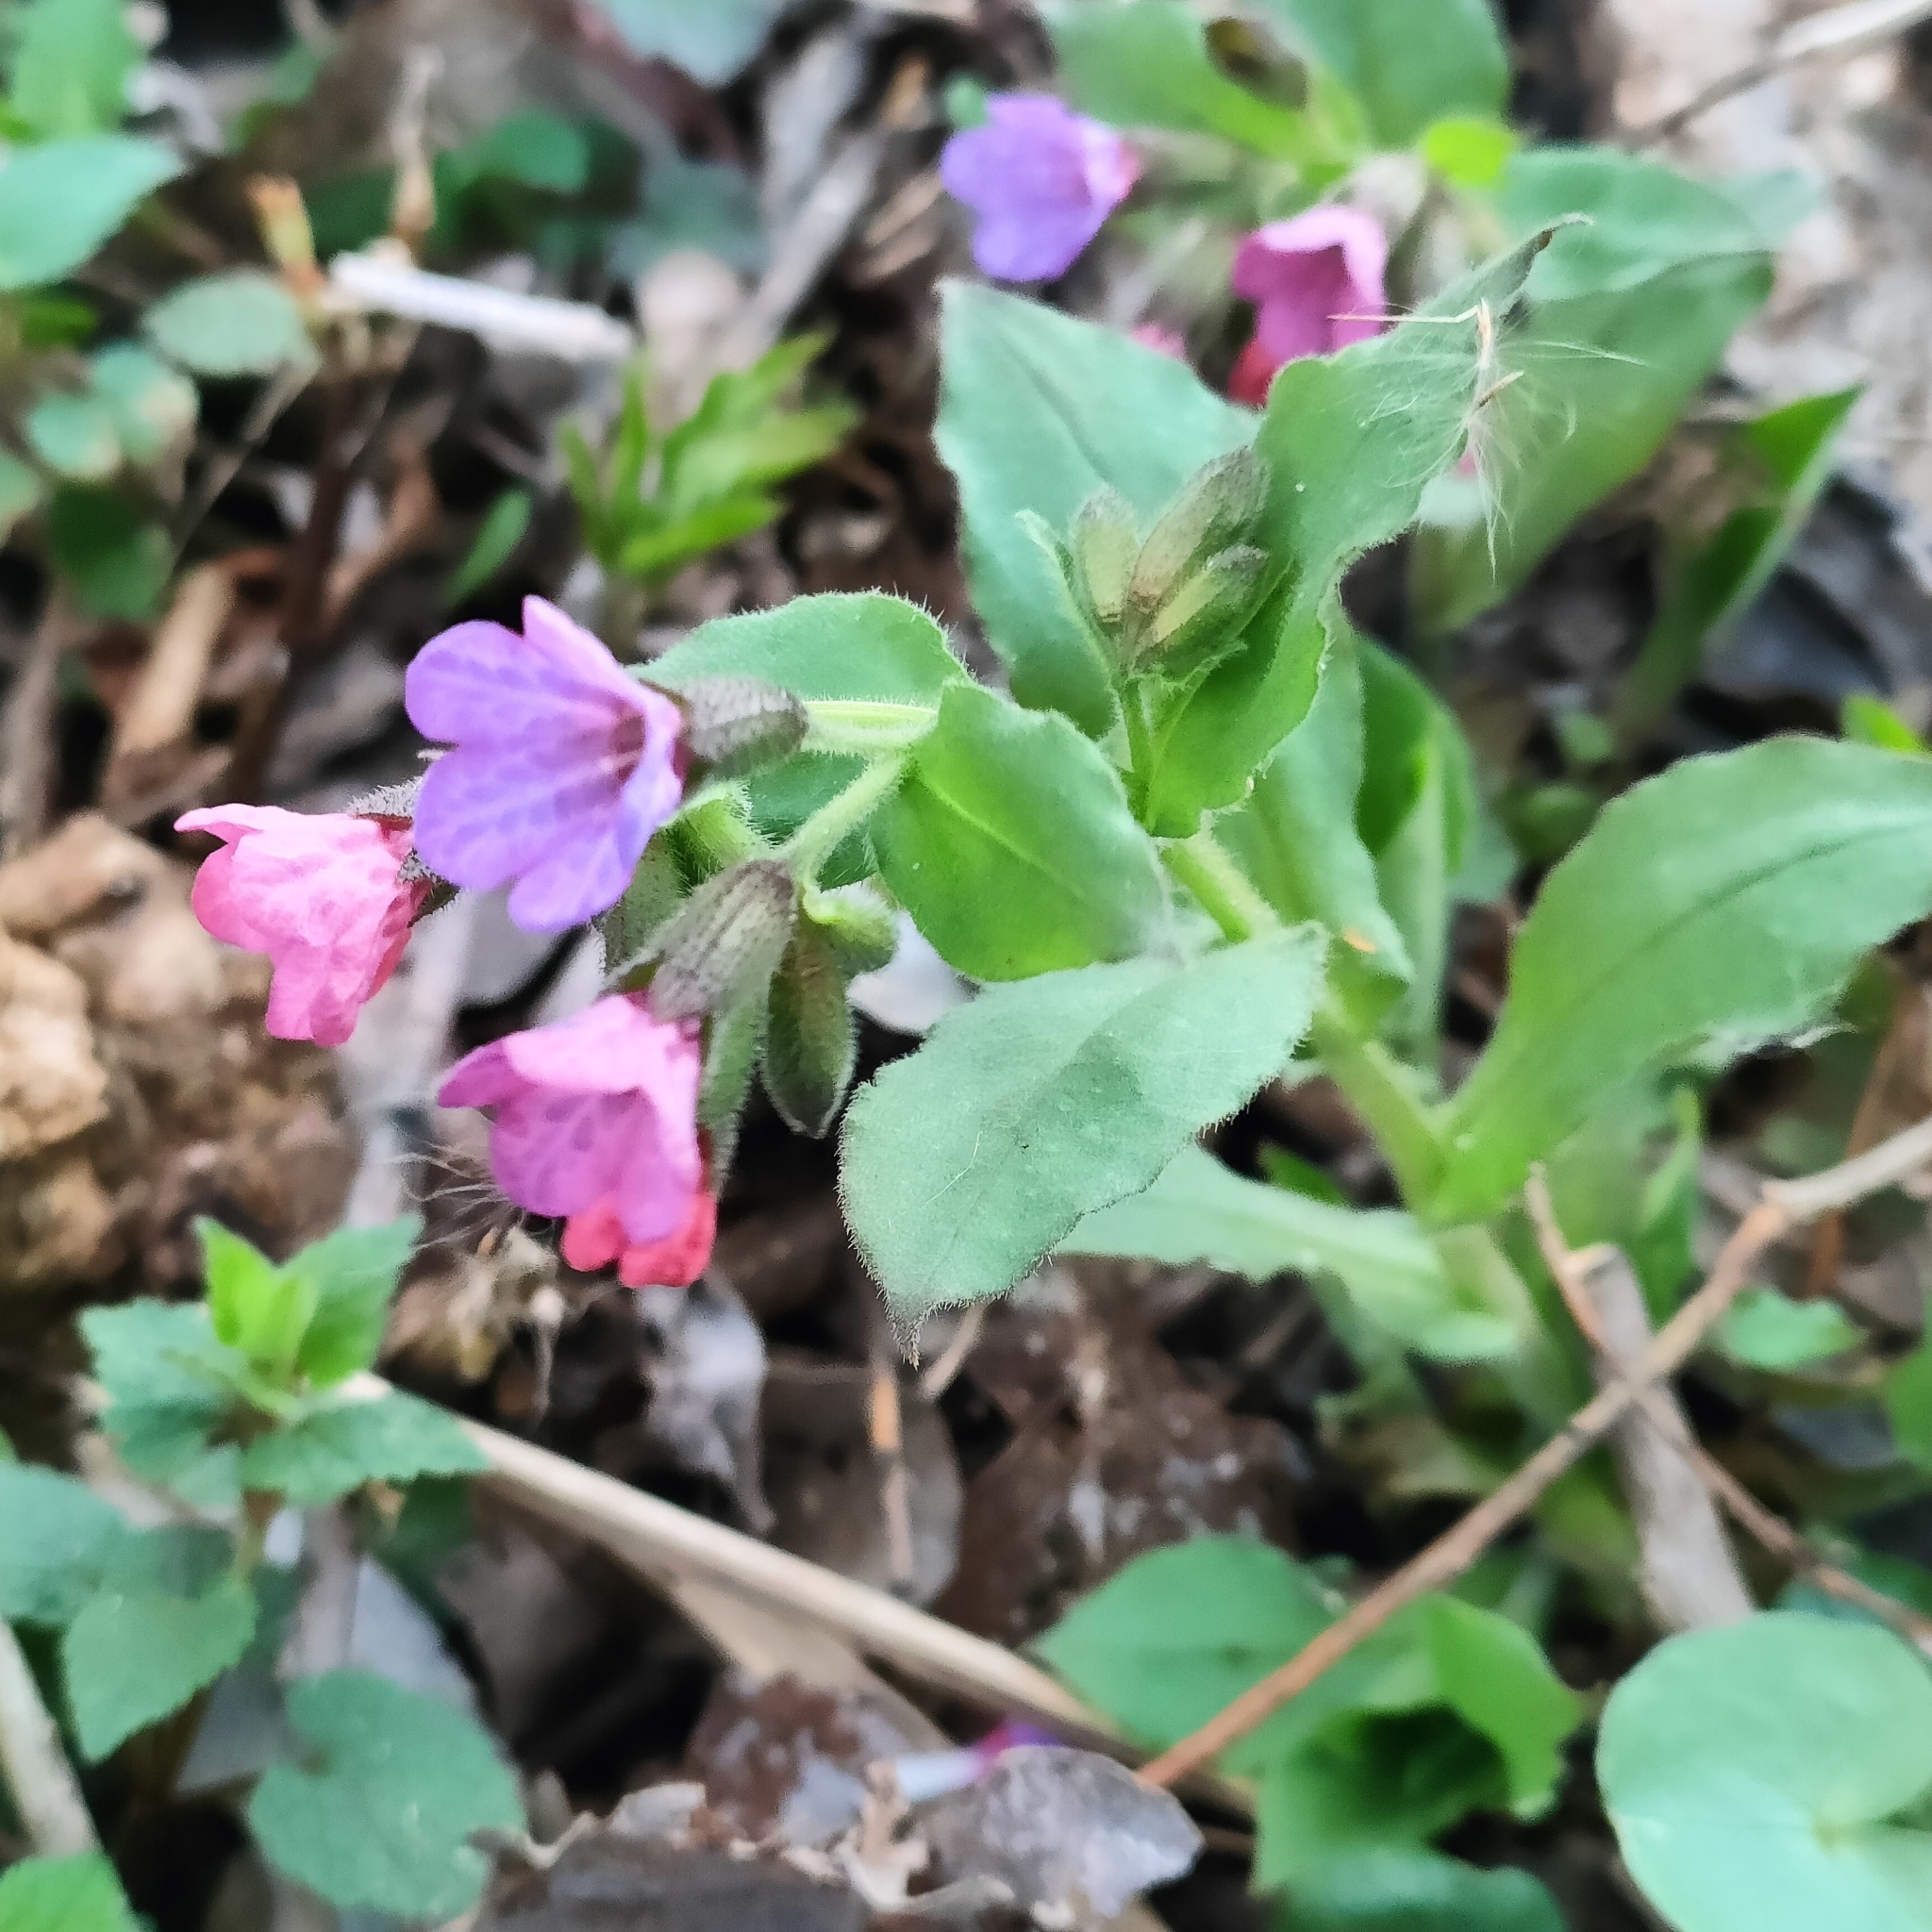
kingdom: Plantae
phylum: Tracheophyta
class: Magnoliopsida
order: Boraginales
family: Boraginaceae
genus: Pulmonaria
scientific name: Pulmonaria obscura
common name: Suffolk lungwort
